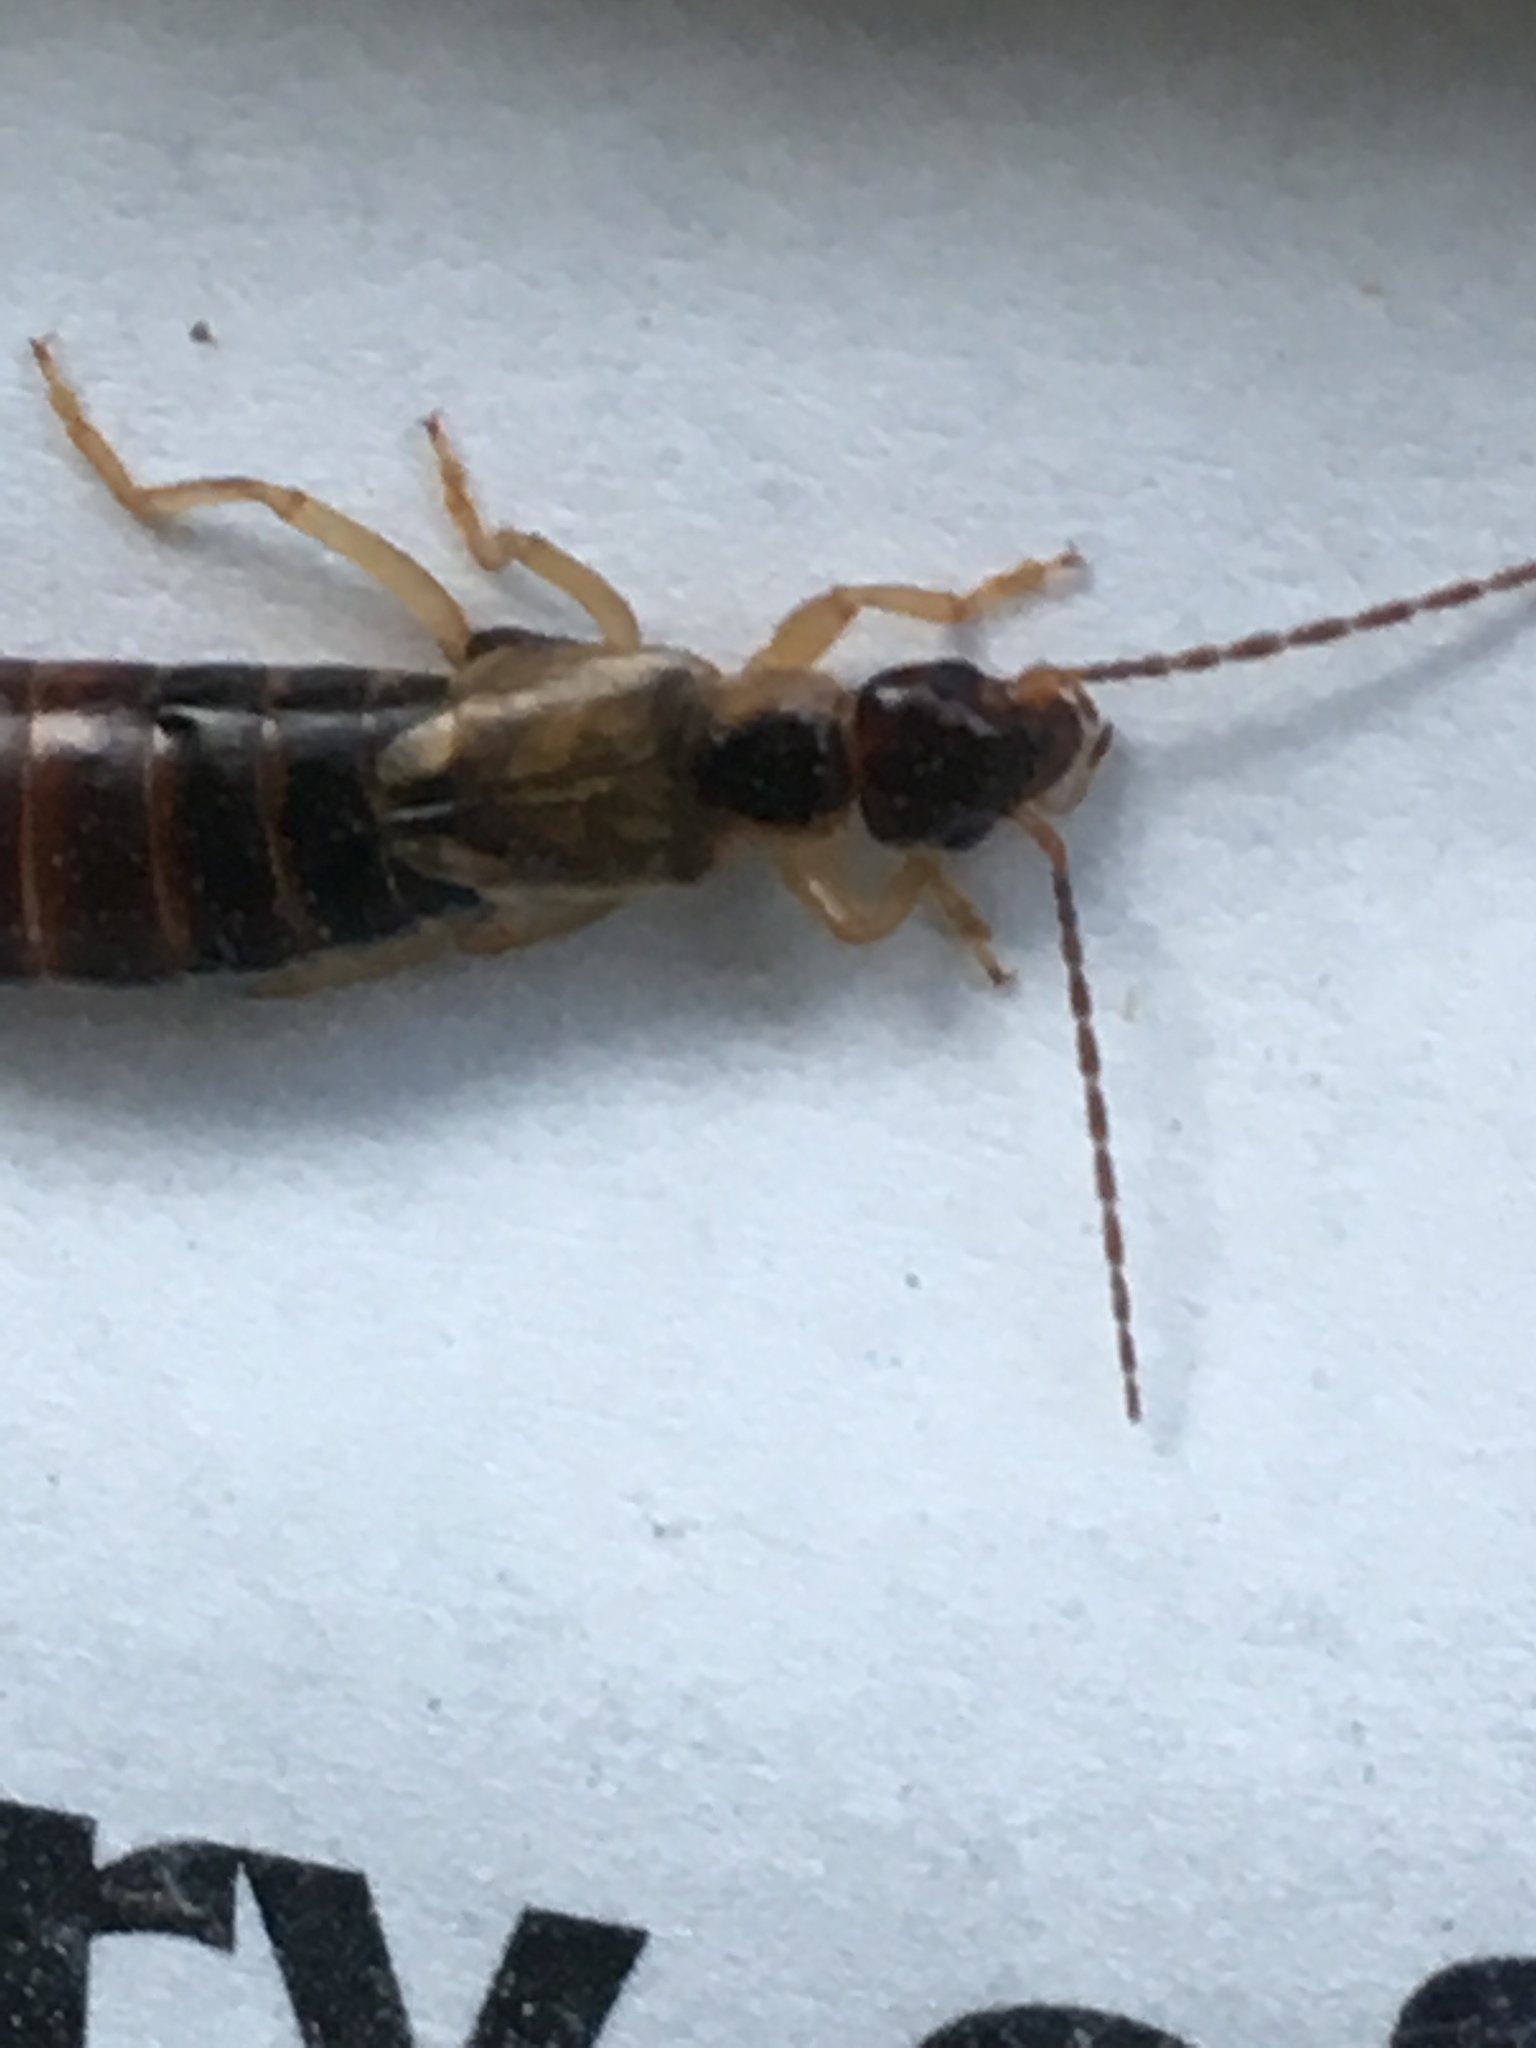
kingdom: Animalia
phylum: Arthropoda
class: Insecta
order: Dermaptera
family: Forficulidae
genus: Forficula
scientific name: Forficula
